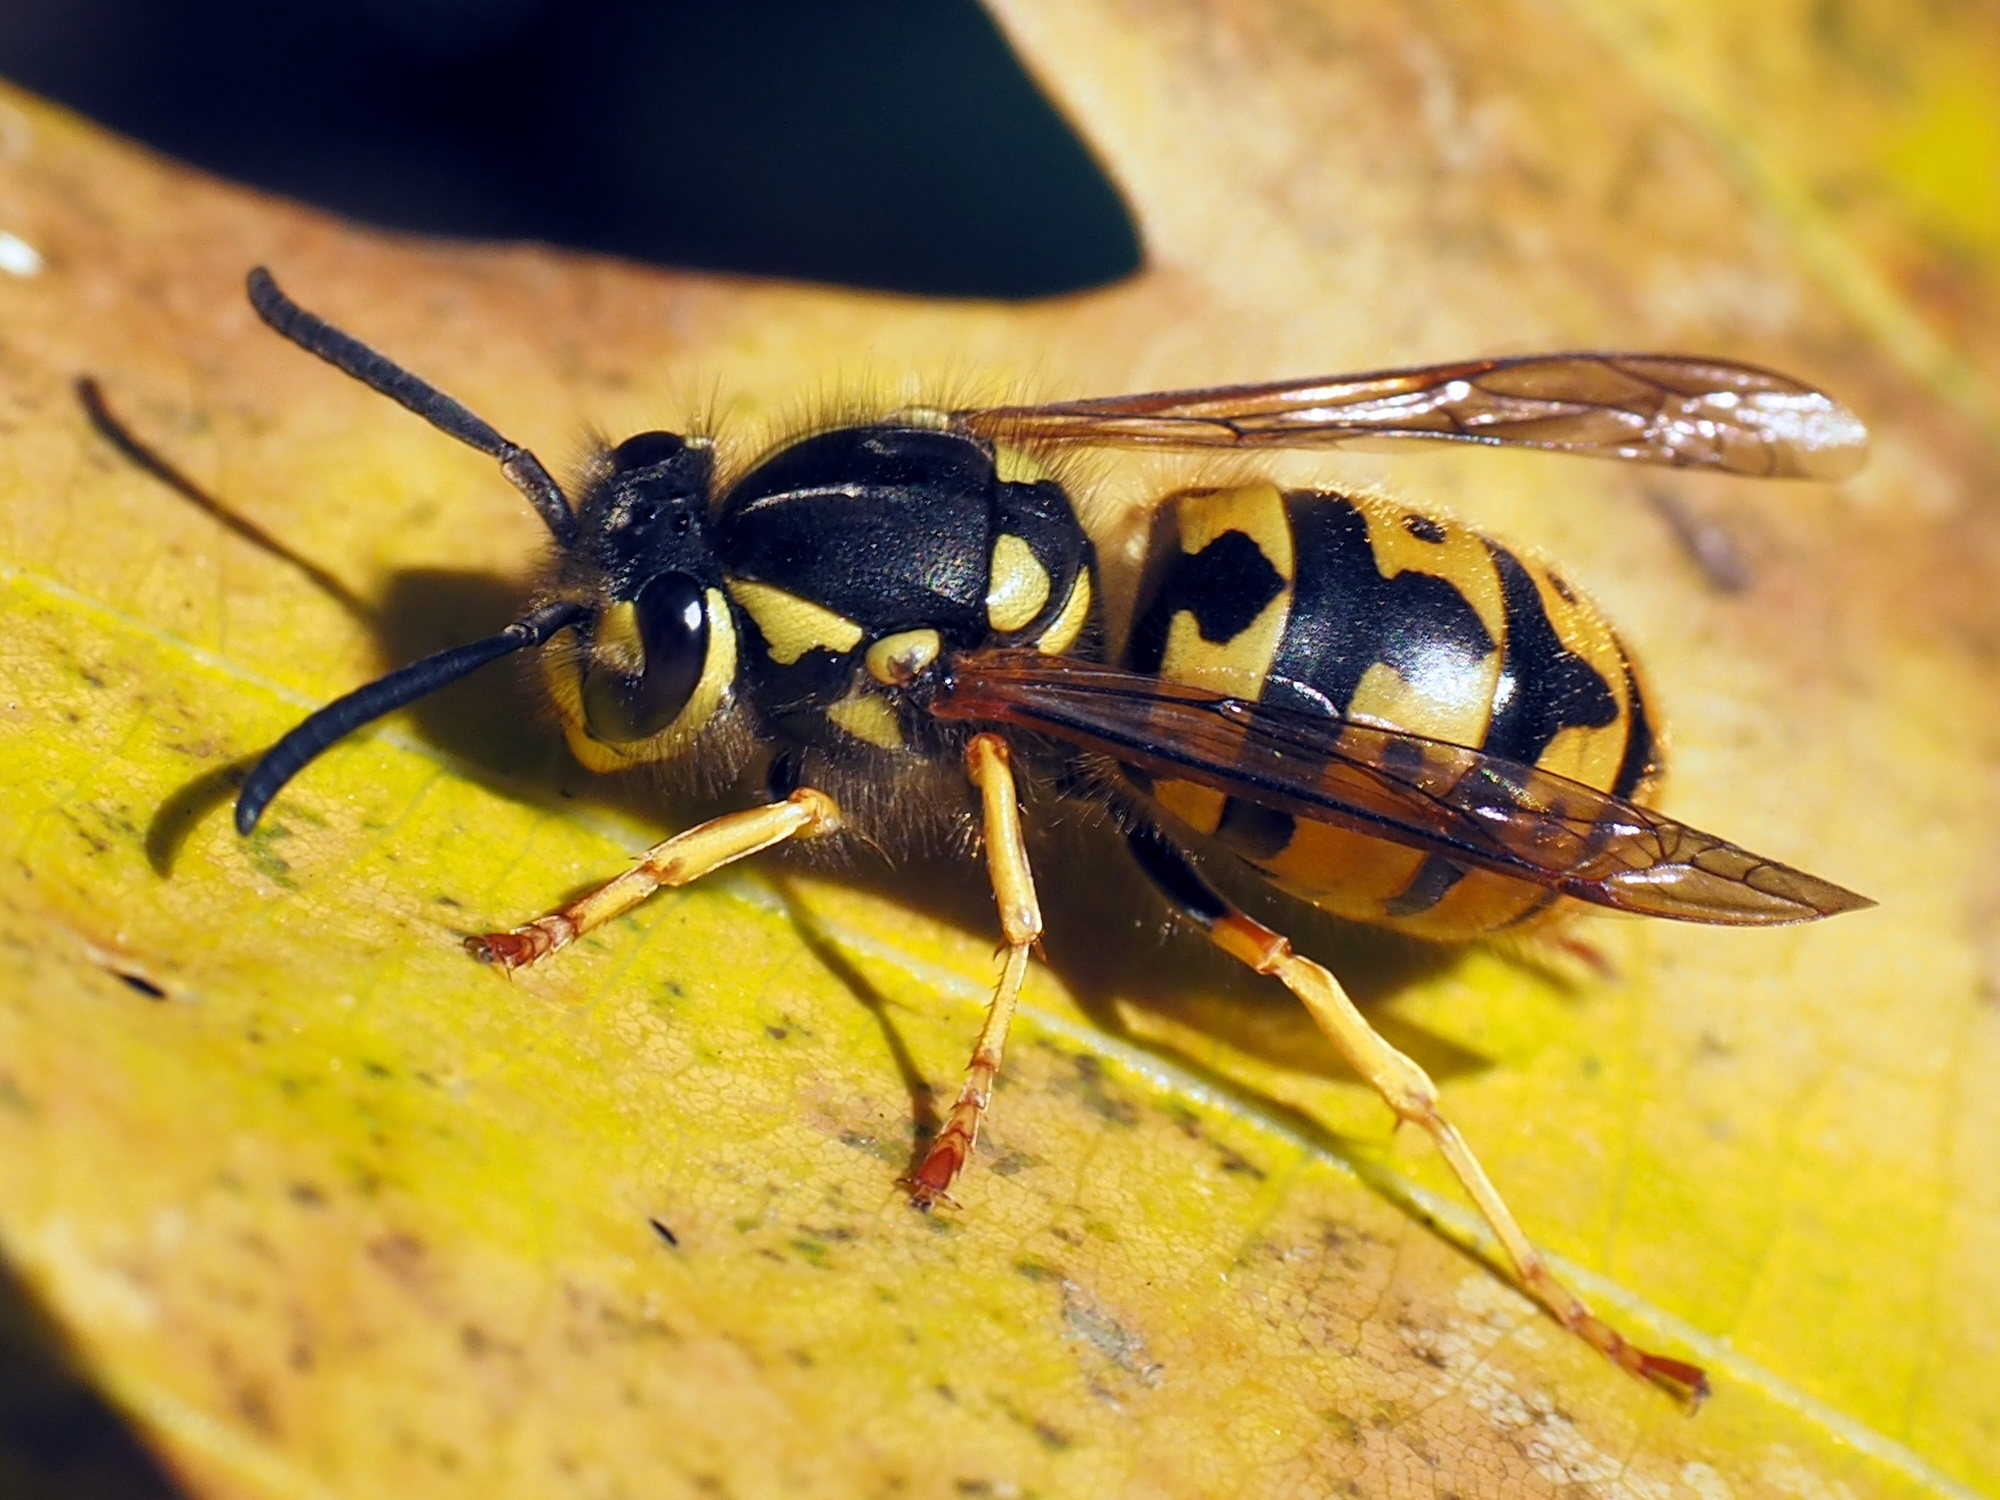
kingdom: Animalia
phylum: Arthropoda
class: Insecta
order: Hymenoptera
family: Vespidae
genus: Vespula
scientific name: Vespula germanica
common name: German wasp
